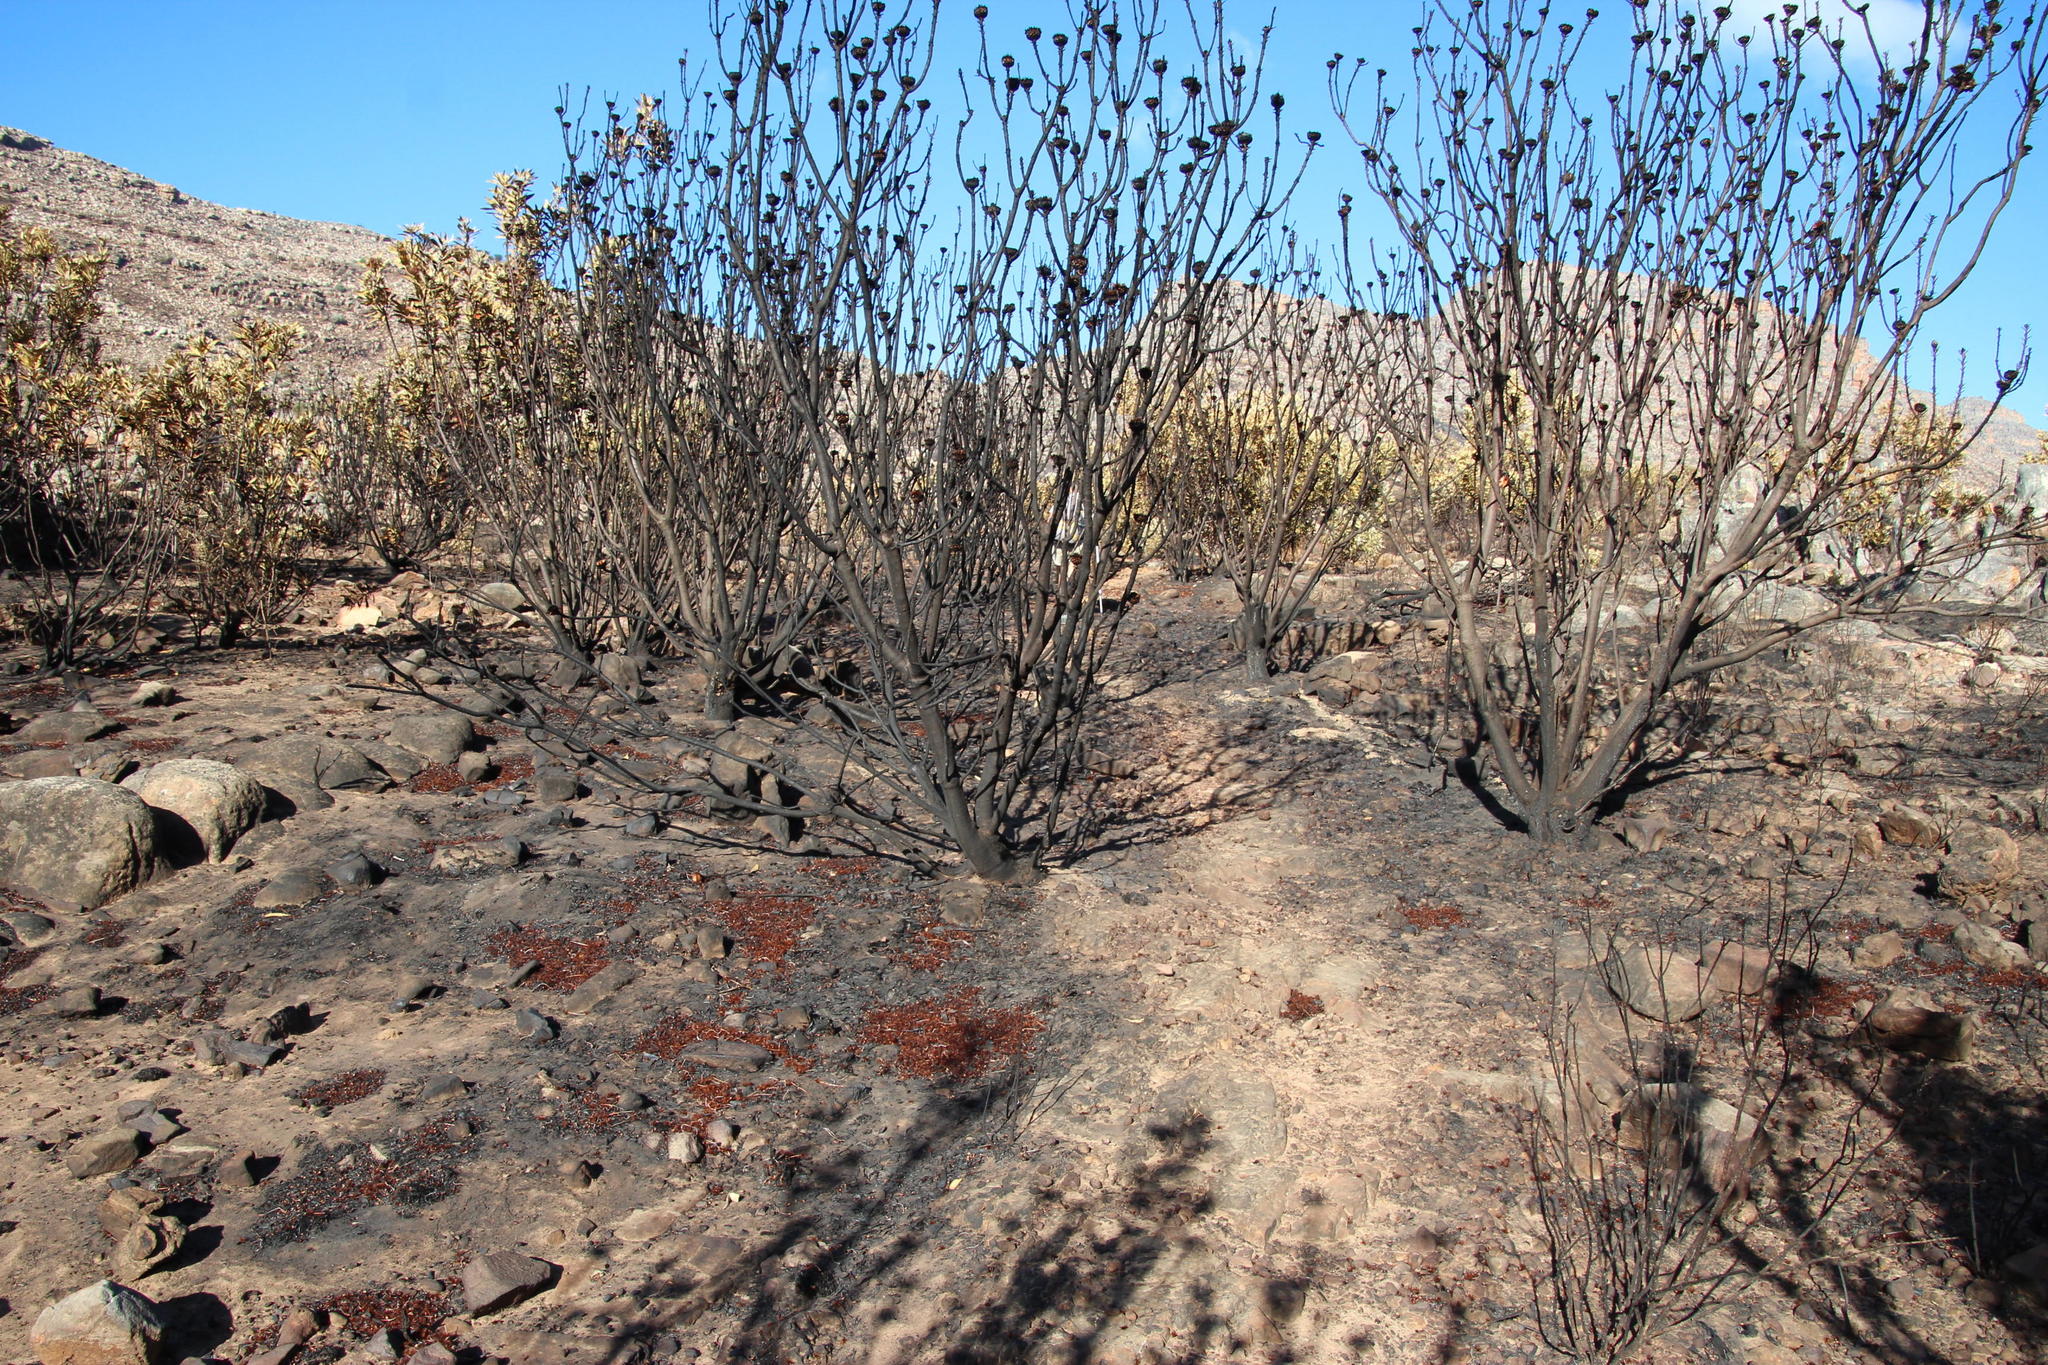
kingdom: Plantae
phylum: Tracheophyta
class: Magnoliopsida
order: Proteales
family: Proteaceae
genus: Protea
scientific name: Protea laurifolia
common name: Grey-leaf sugarbsh
